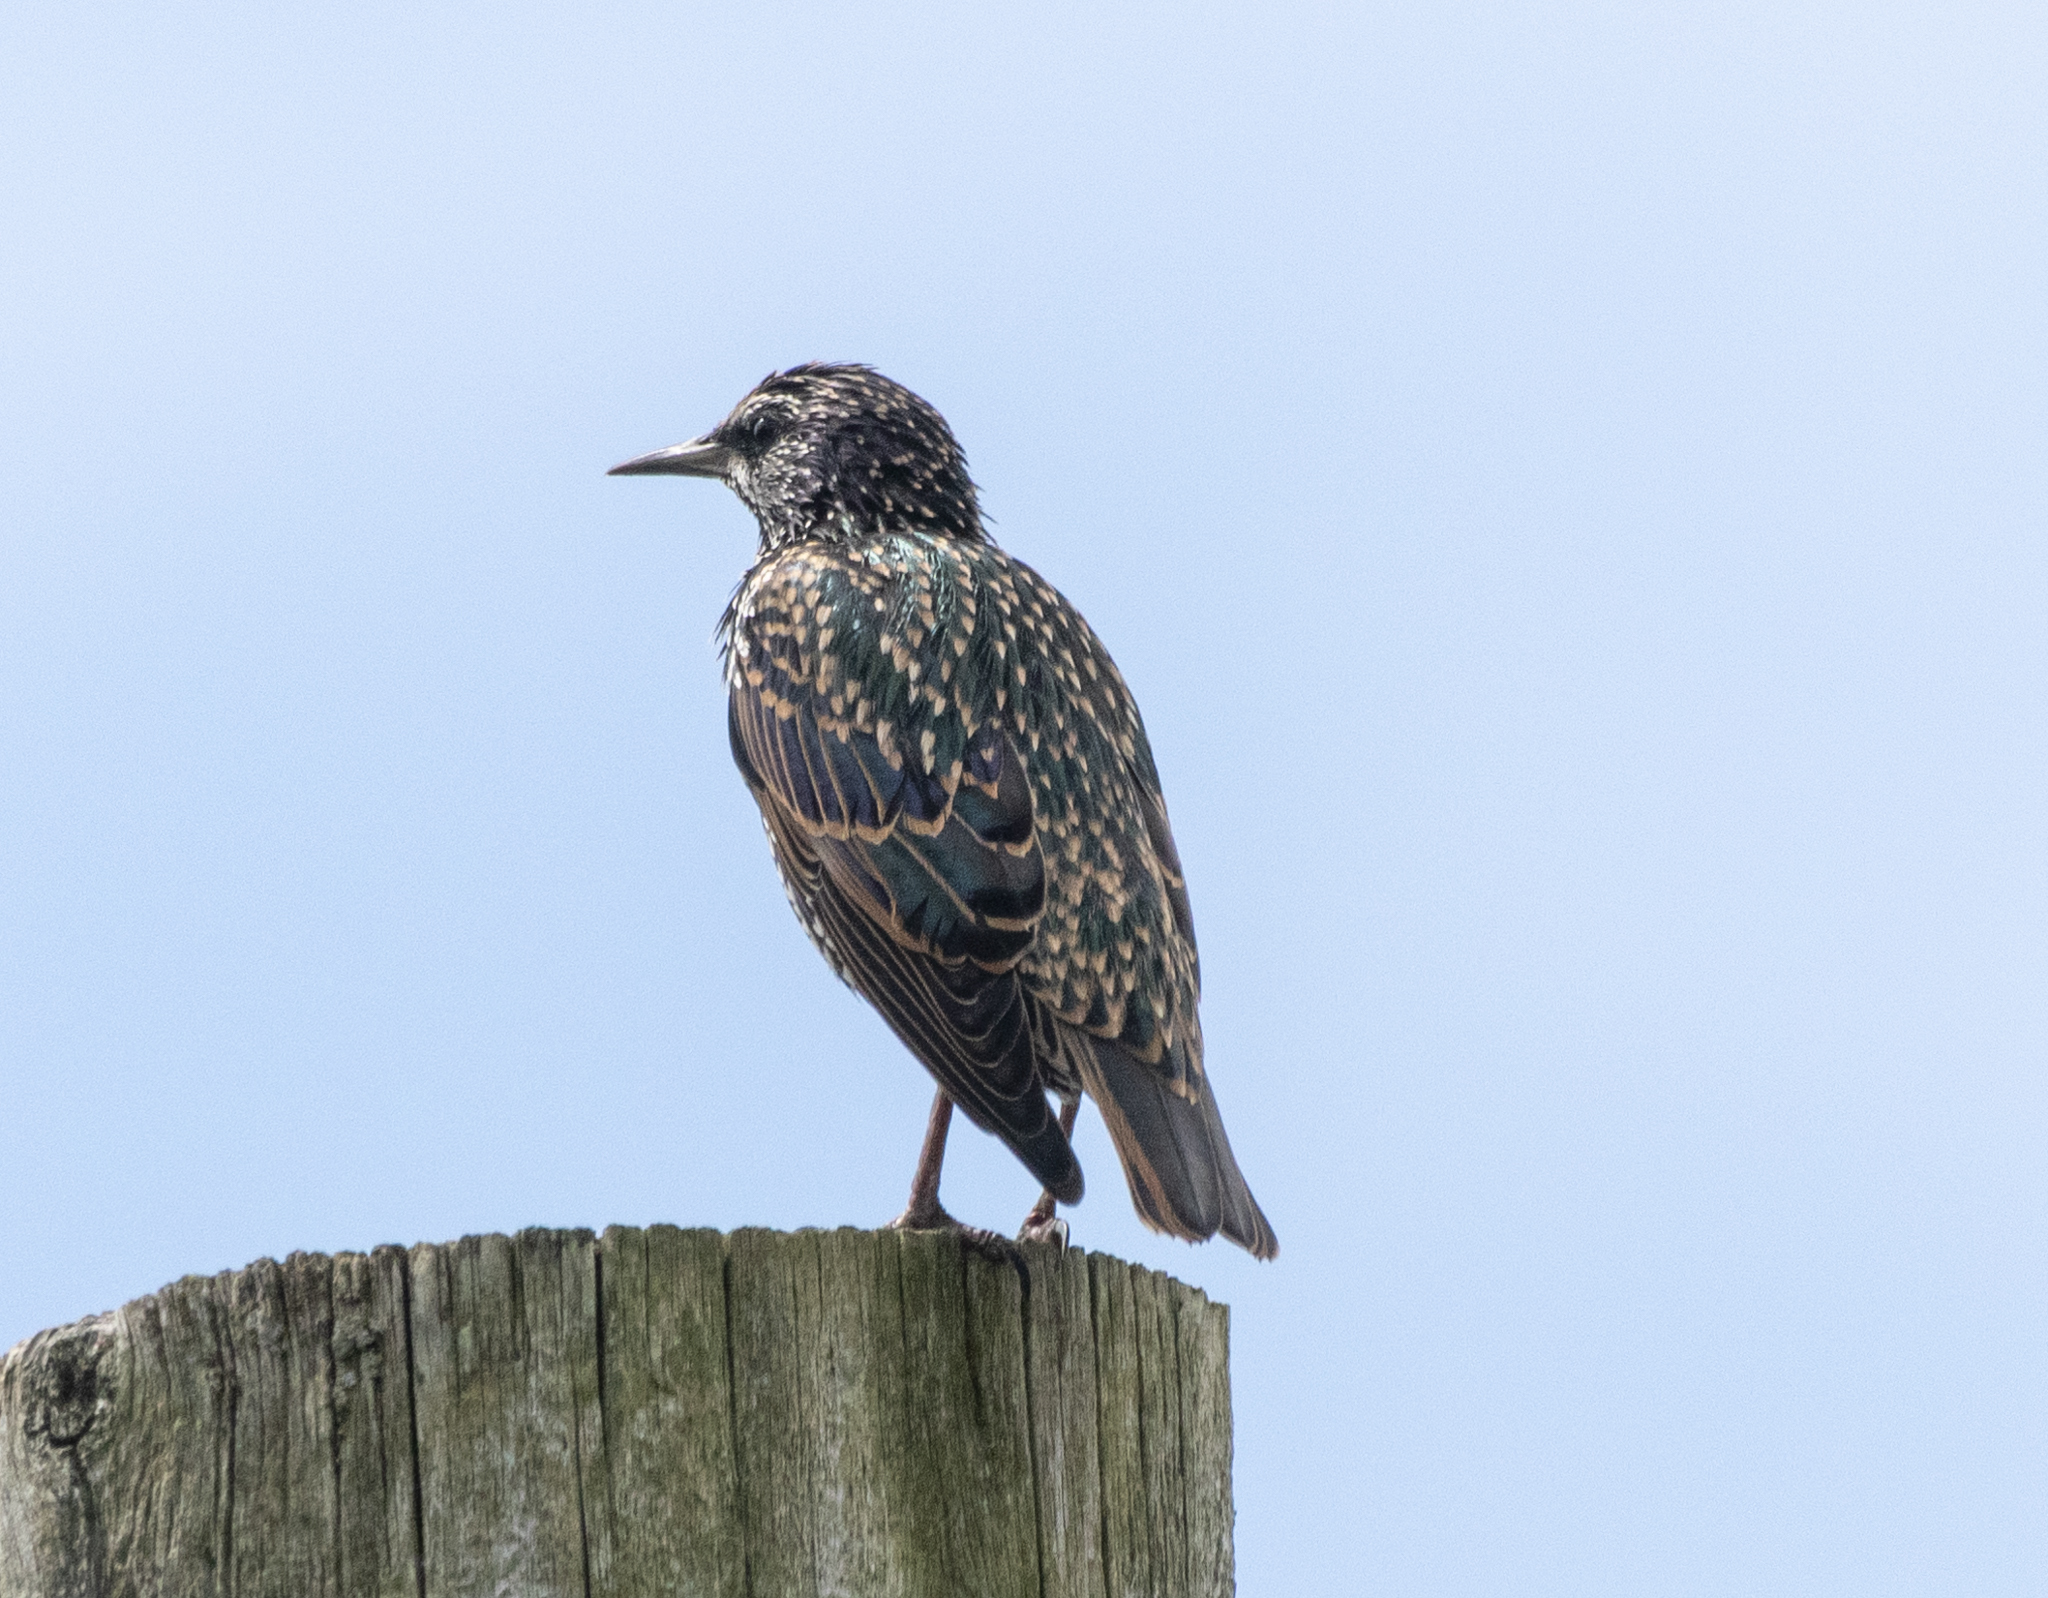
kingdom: Animalia
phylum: Chordata
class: Aves
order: Passeriformes
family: Sturnidae
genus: Sturnus
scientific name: Sturnus vulgaris
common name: Common starling
